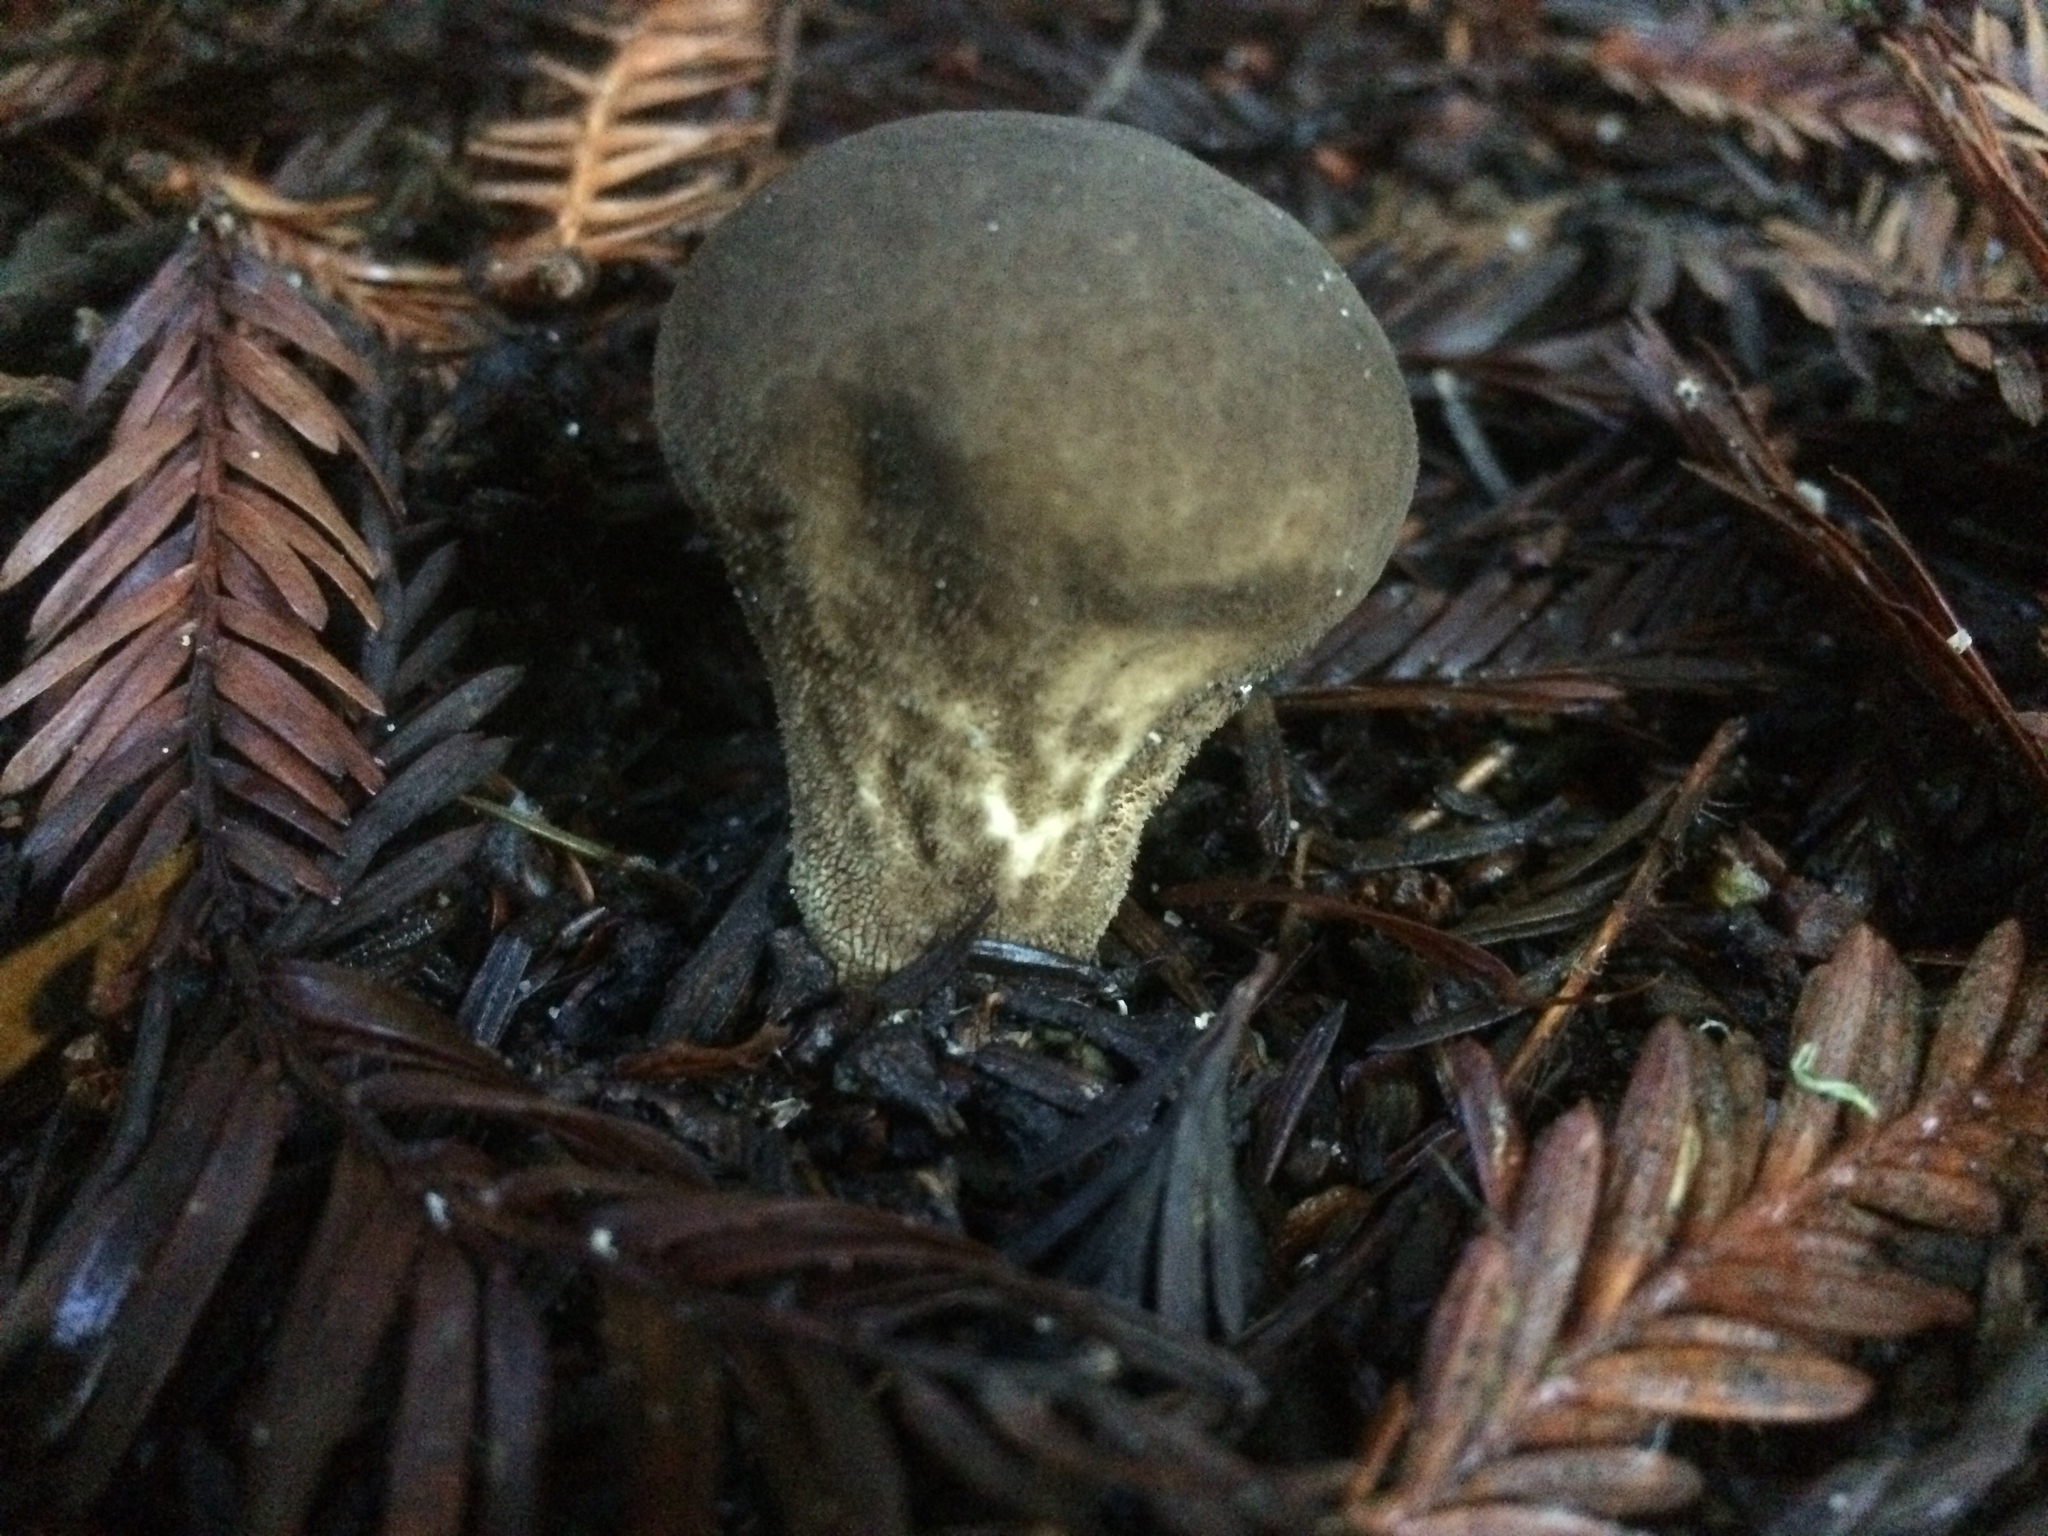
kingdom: Fungi
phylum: Basidiomycota
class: Agaricomycetes
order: Agaricales
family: Lycoperdaceae
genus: Lycoperdon
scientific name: Lycoperdon umbrinum
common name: Umber-brown puffball
